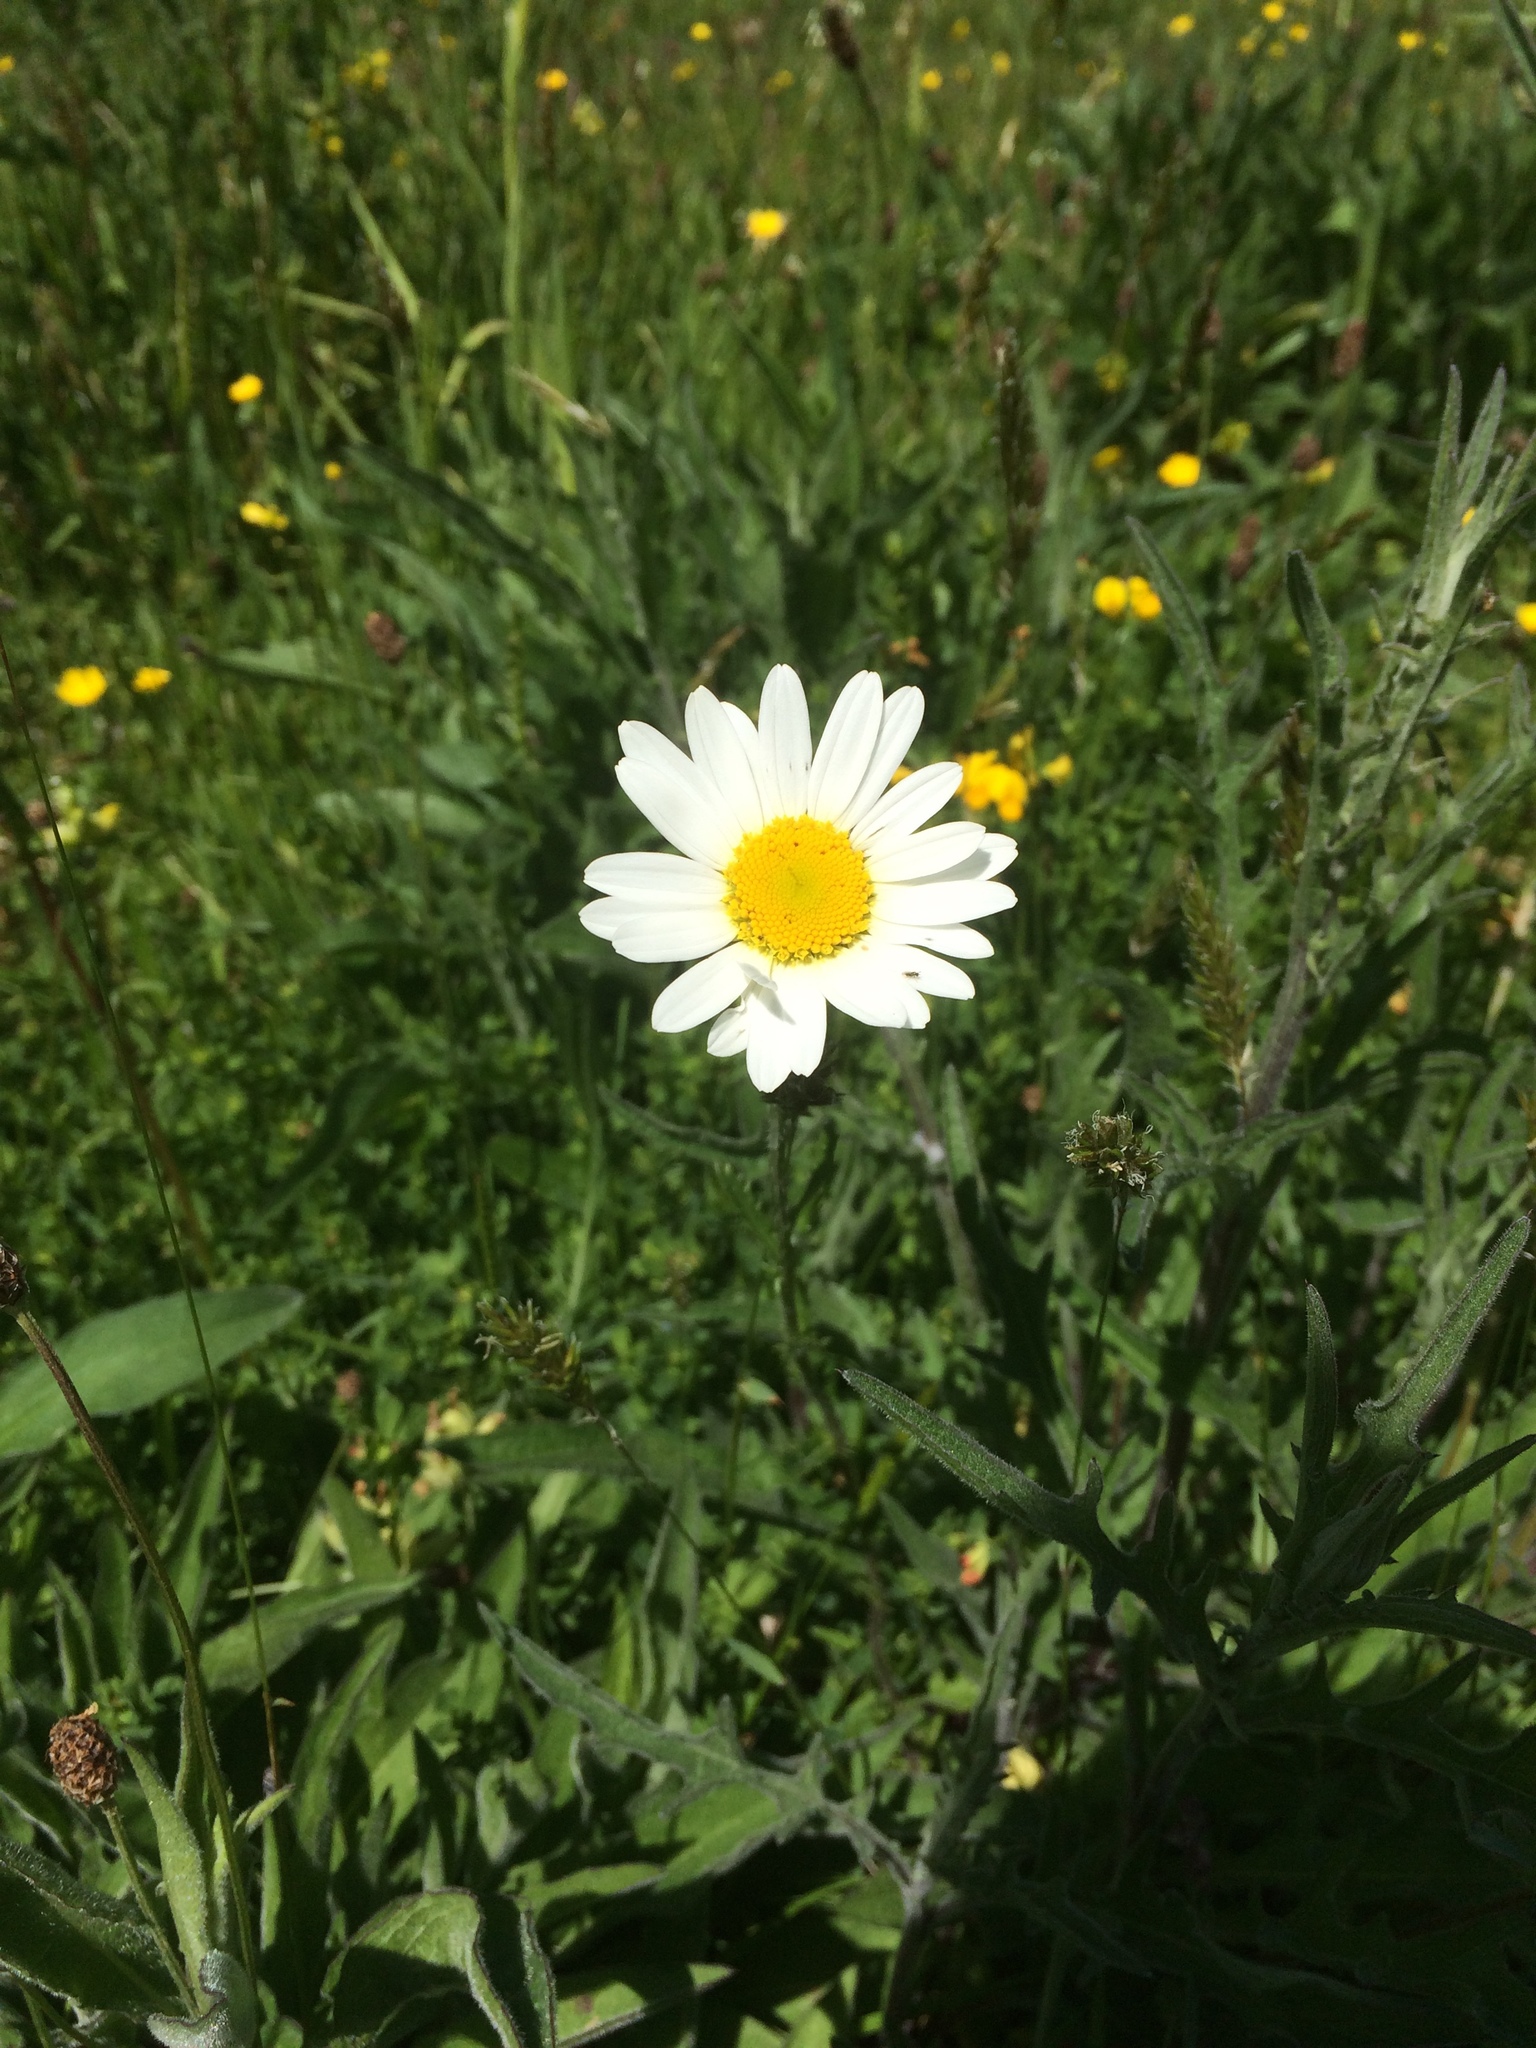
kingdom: Plantae
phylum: Tracheophyta
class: Magnoliopsida
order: Asterales
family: Asteraceae
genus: Leucanthemum
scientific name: Leucanthemum vulgare
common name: Oxeye daisy
